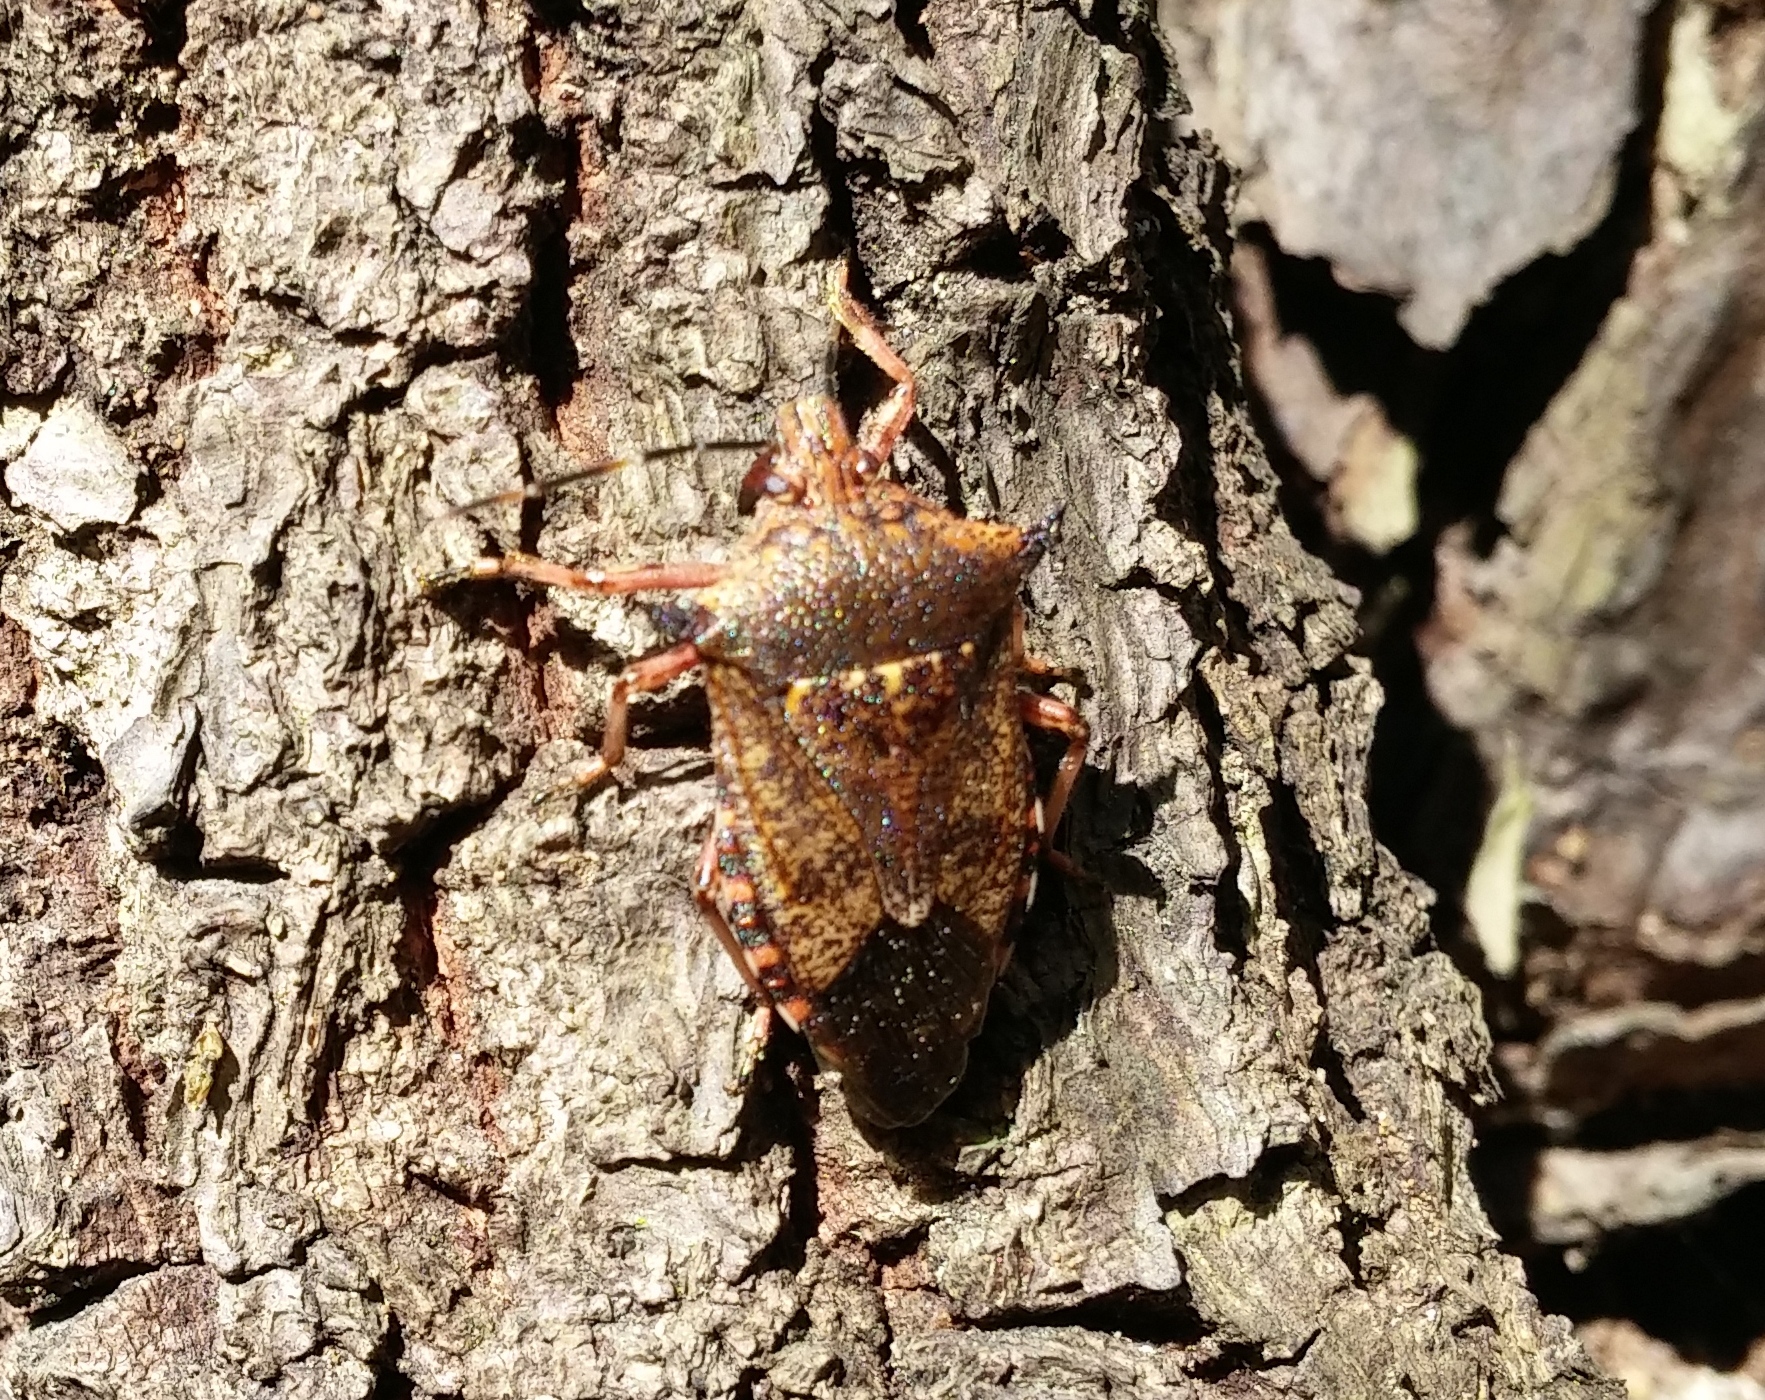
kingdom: Animalia
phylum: Arthropoda
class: Insecta
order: Hemiptera
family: Pentatomidae
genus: Alcaeorrhynchus
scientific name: Alcaeorrhynchus grandis
